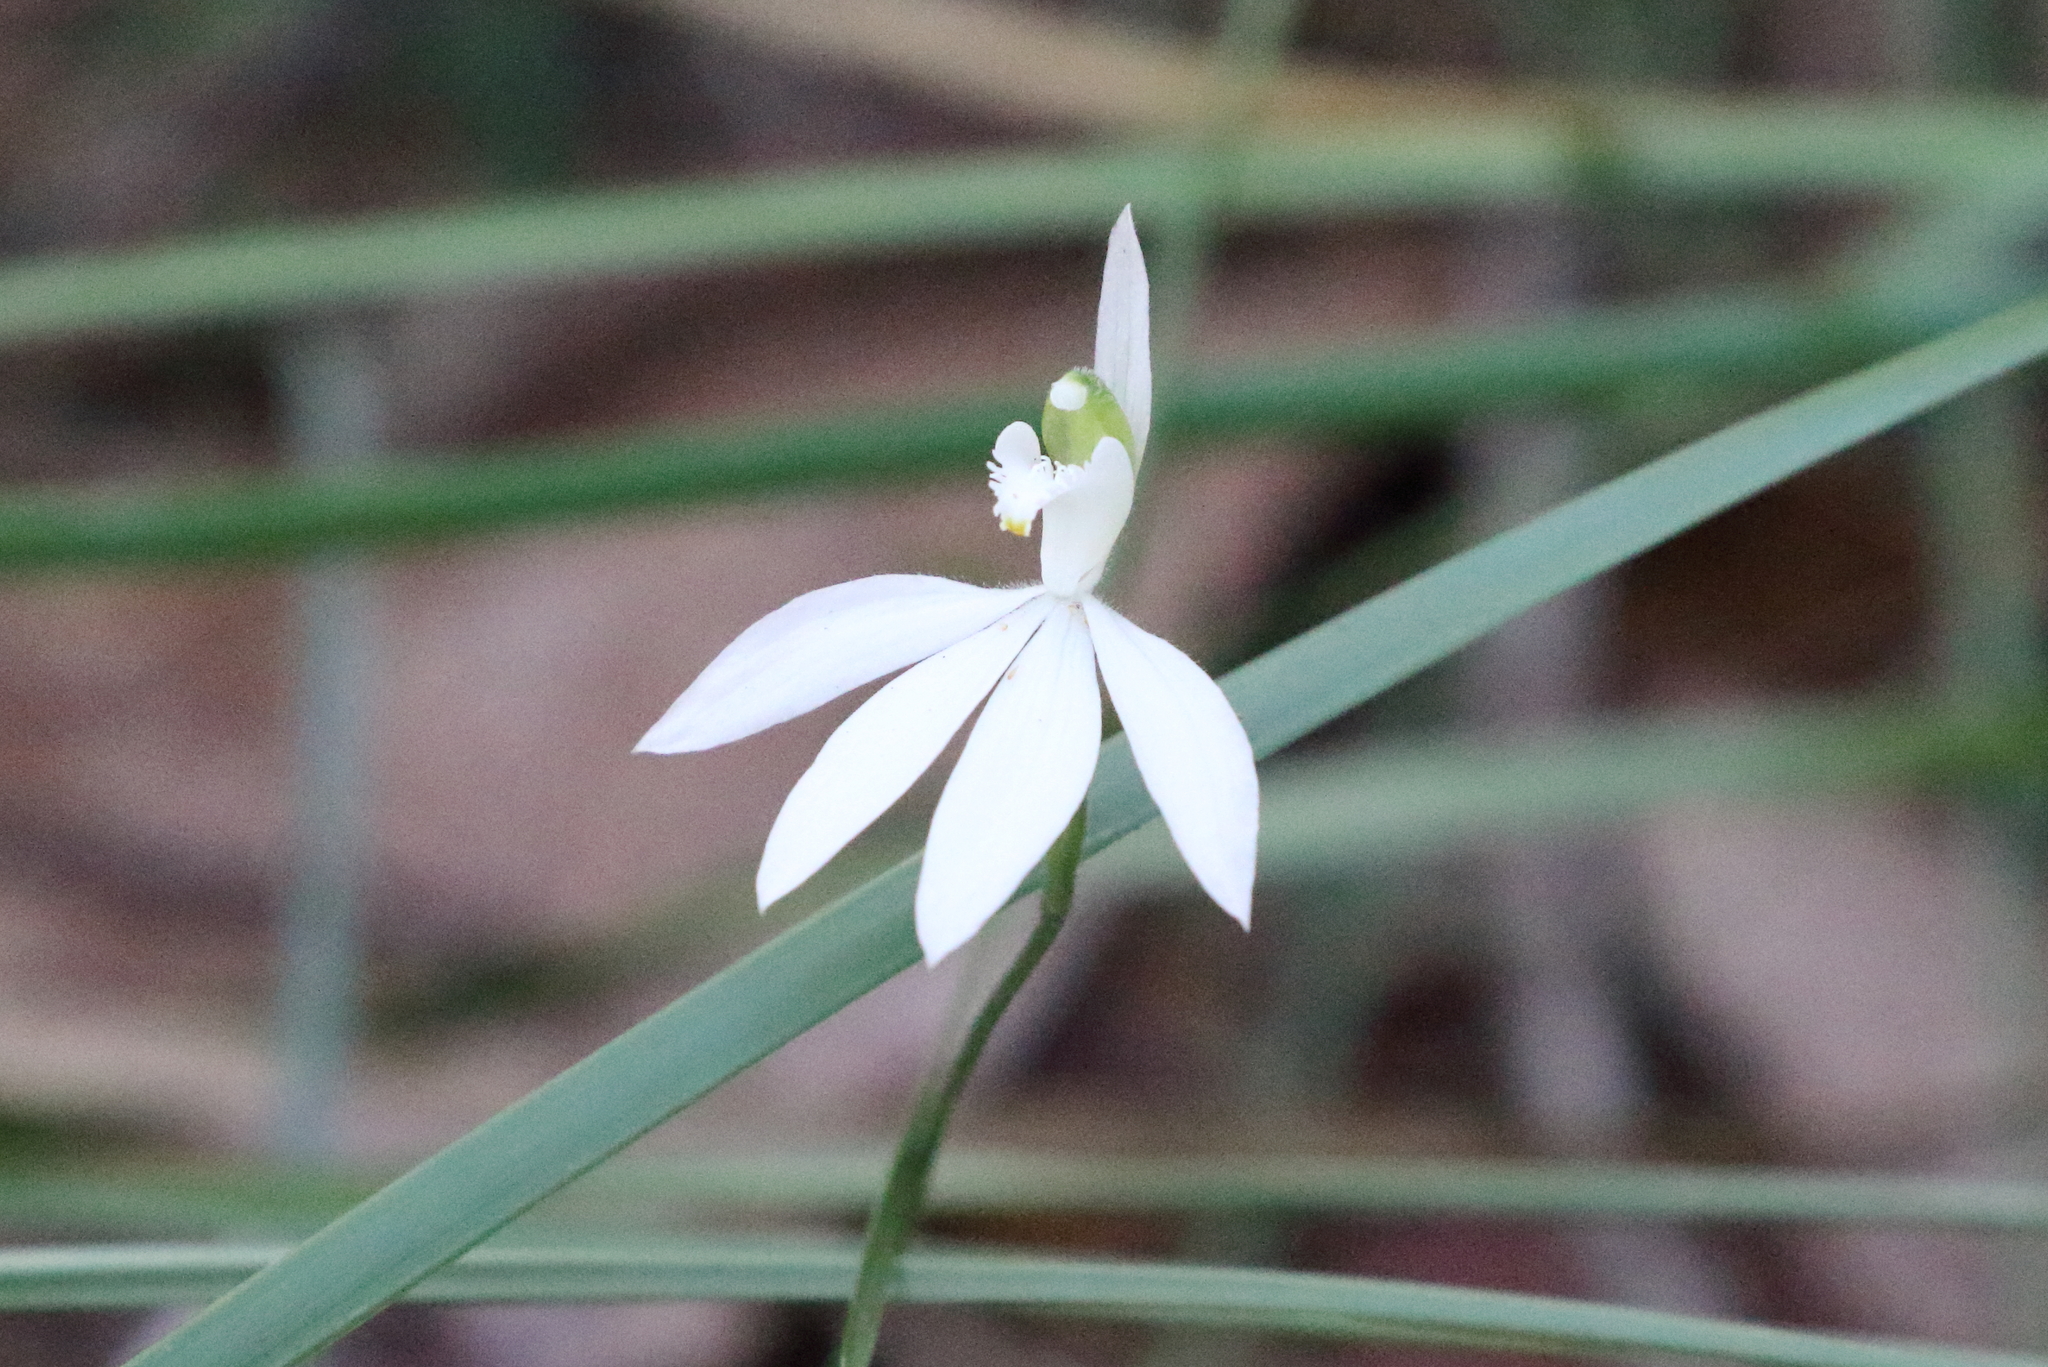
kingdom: Plantae
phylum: Tracheophyta
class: Liliopsida
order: Asparagales
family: Orchidaceae
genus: Caladenia
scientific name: Caladenia picta
